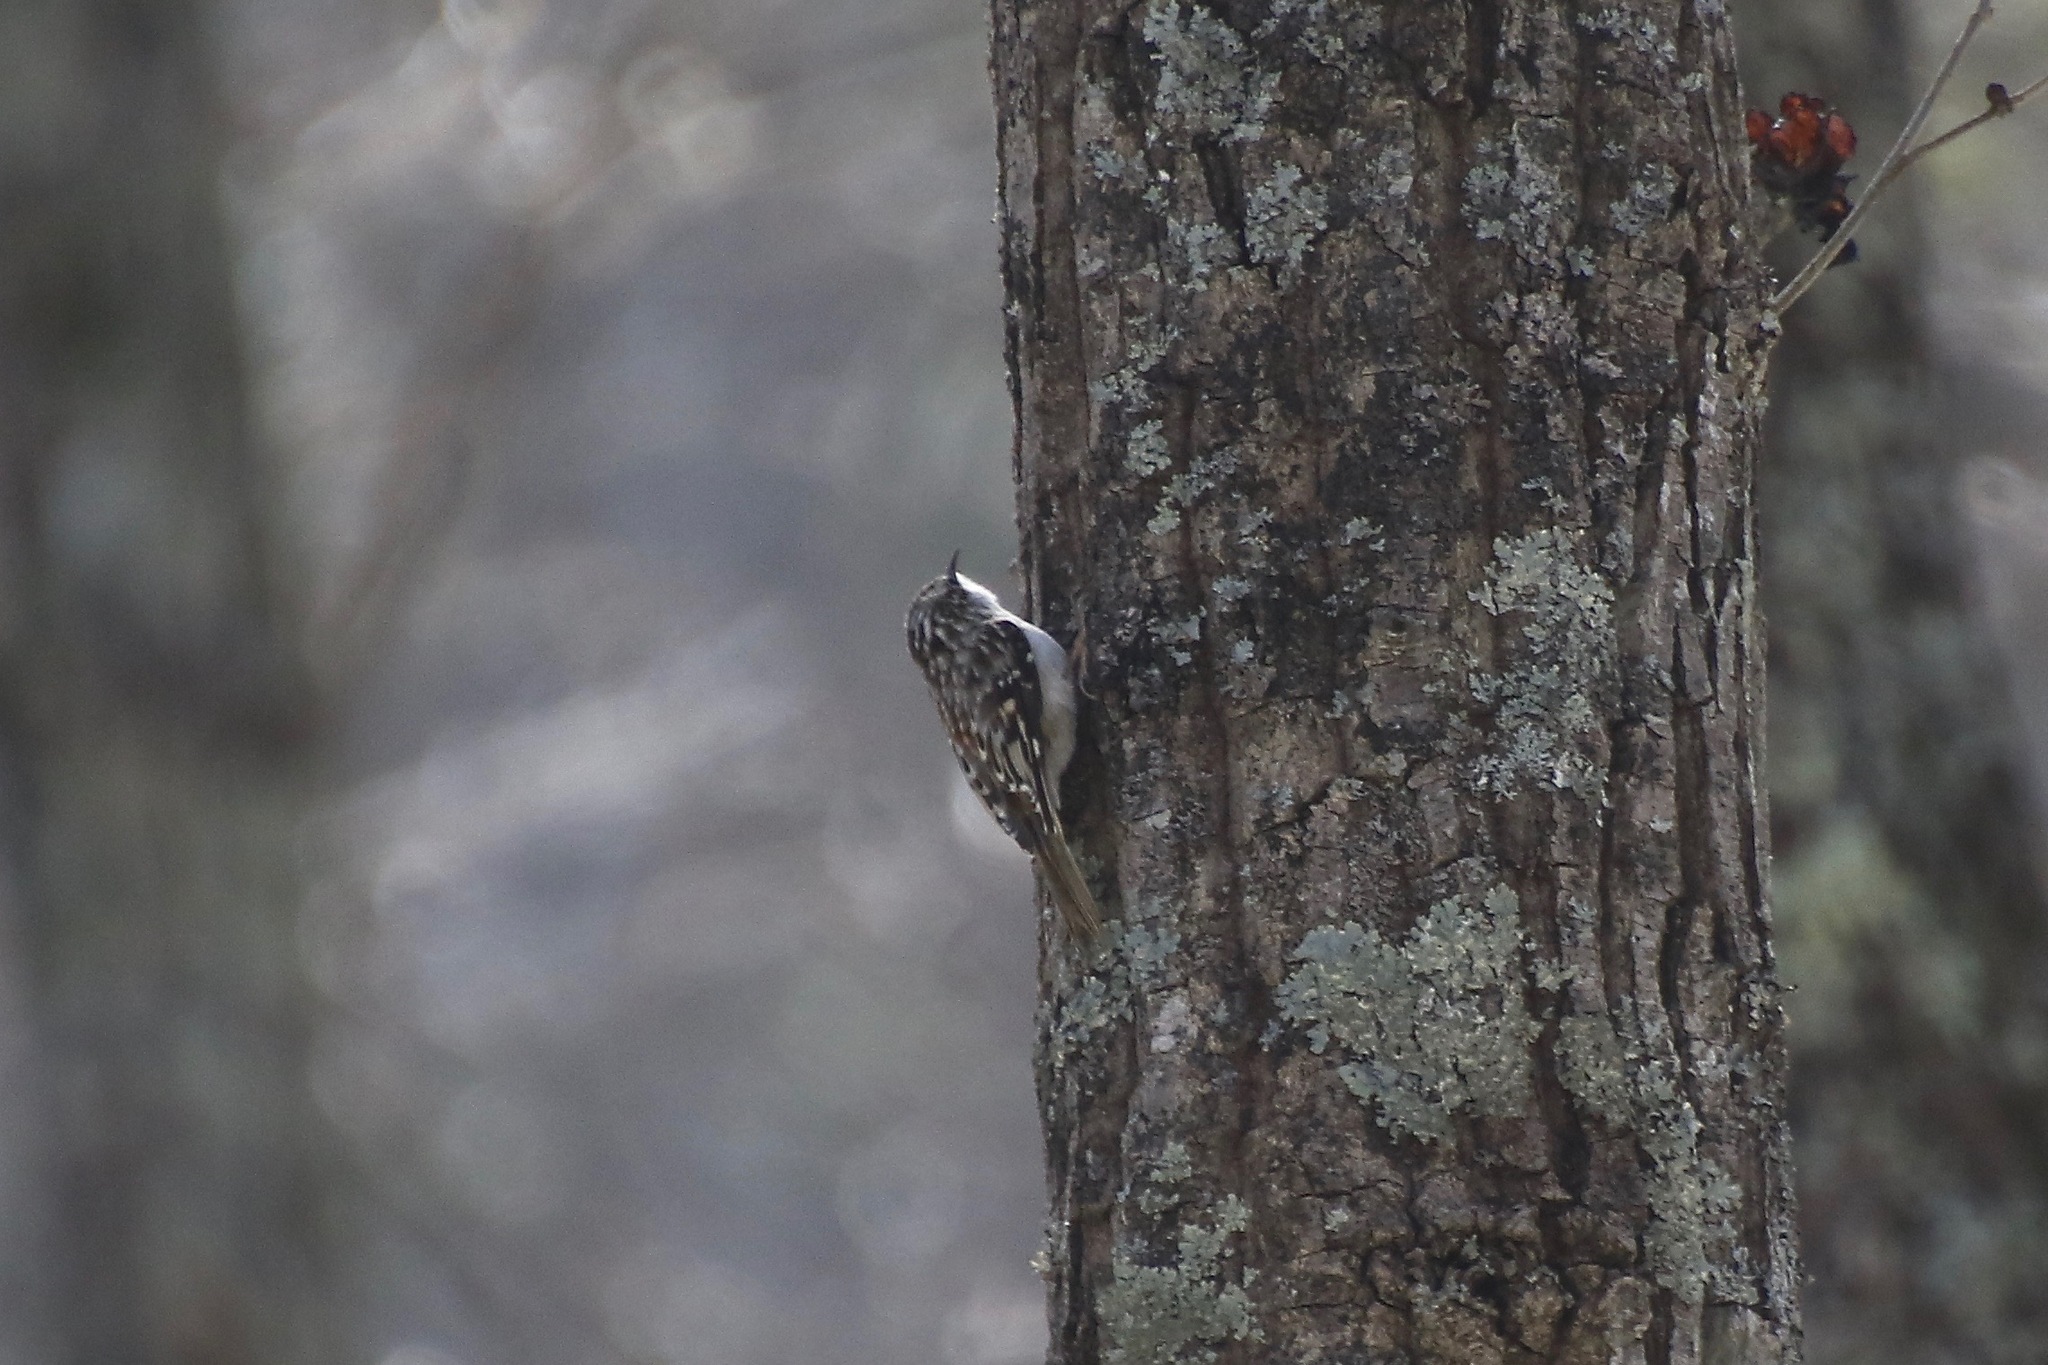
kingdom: Animalia
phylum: Chordata
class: Aves
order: Passeriformes
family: Certhiidae
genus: Certhia
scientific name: Certhia americana
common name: Brown creeper
